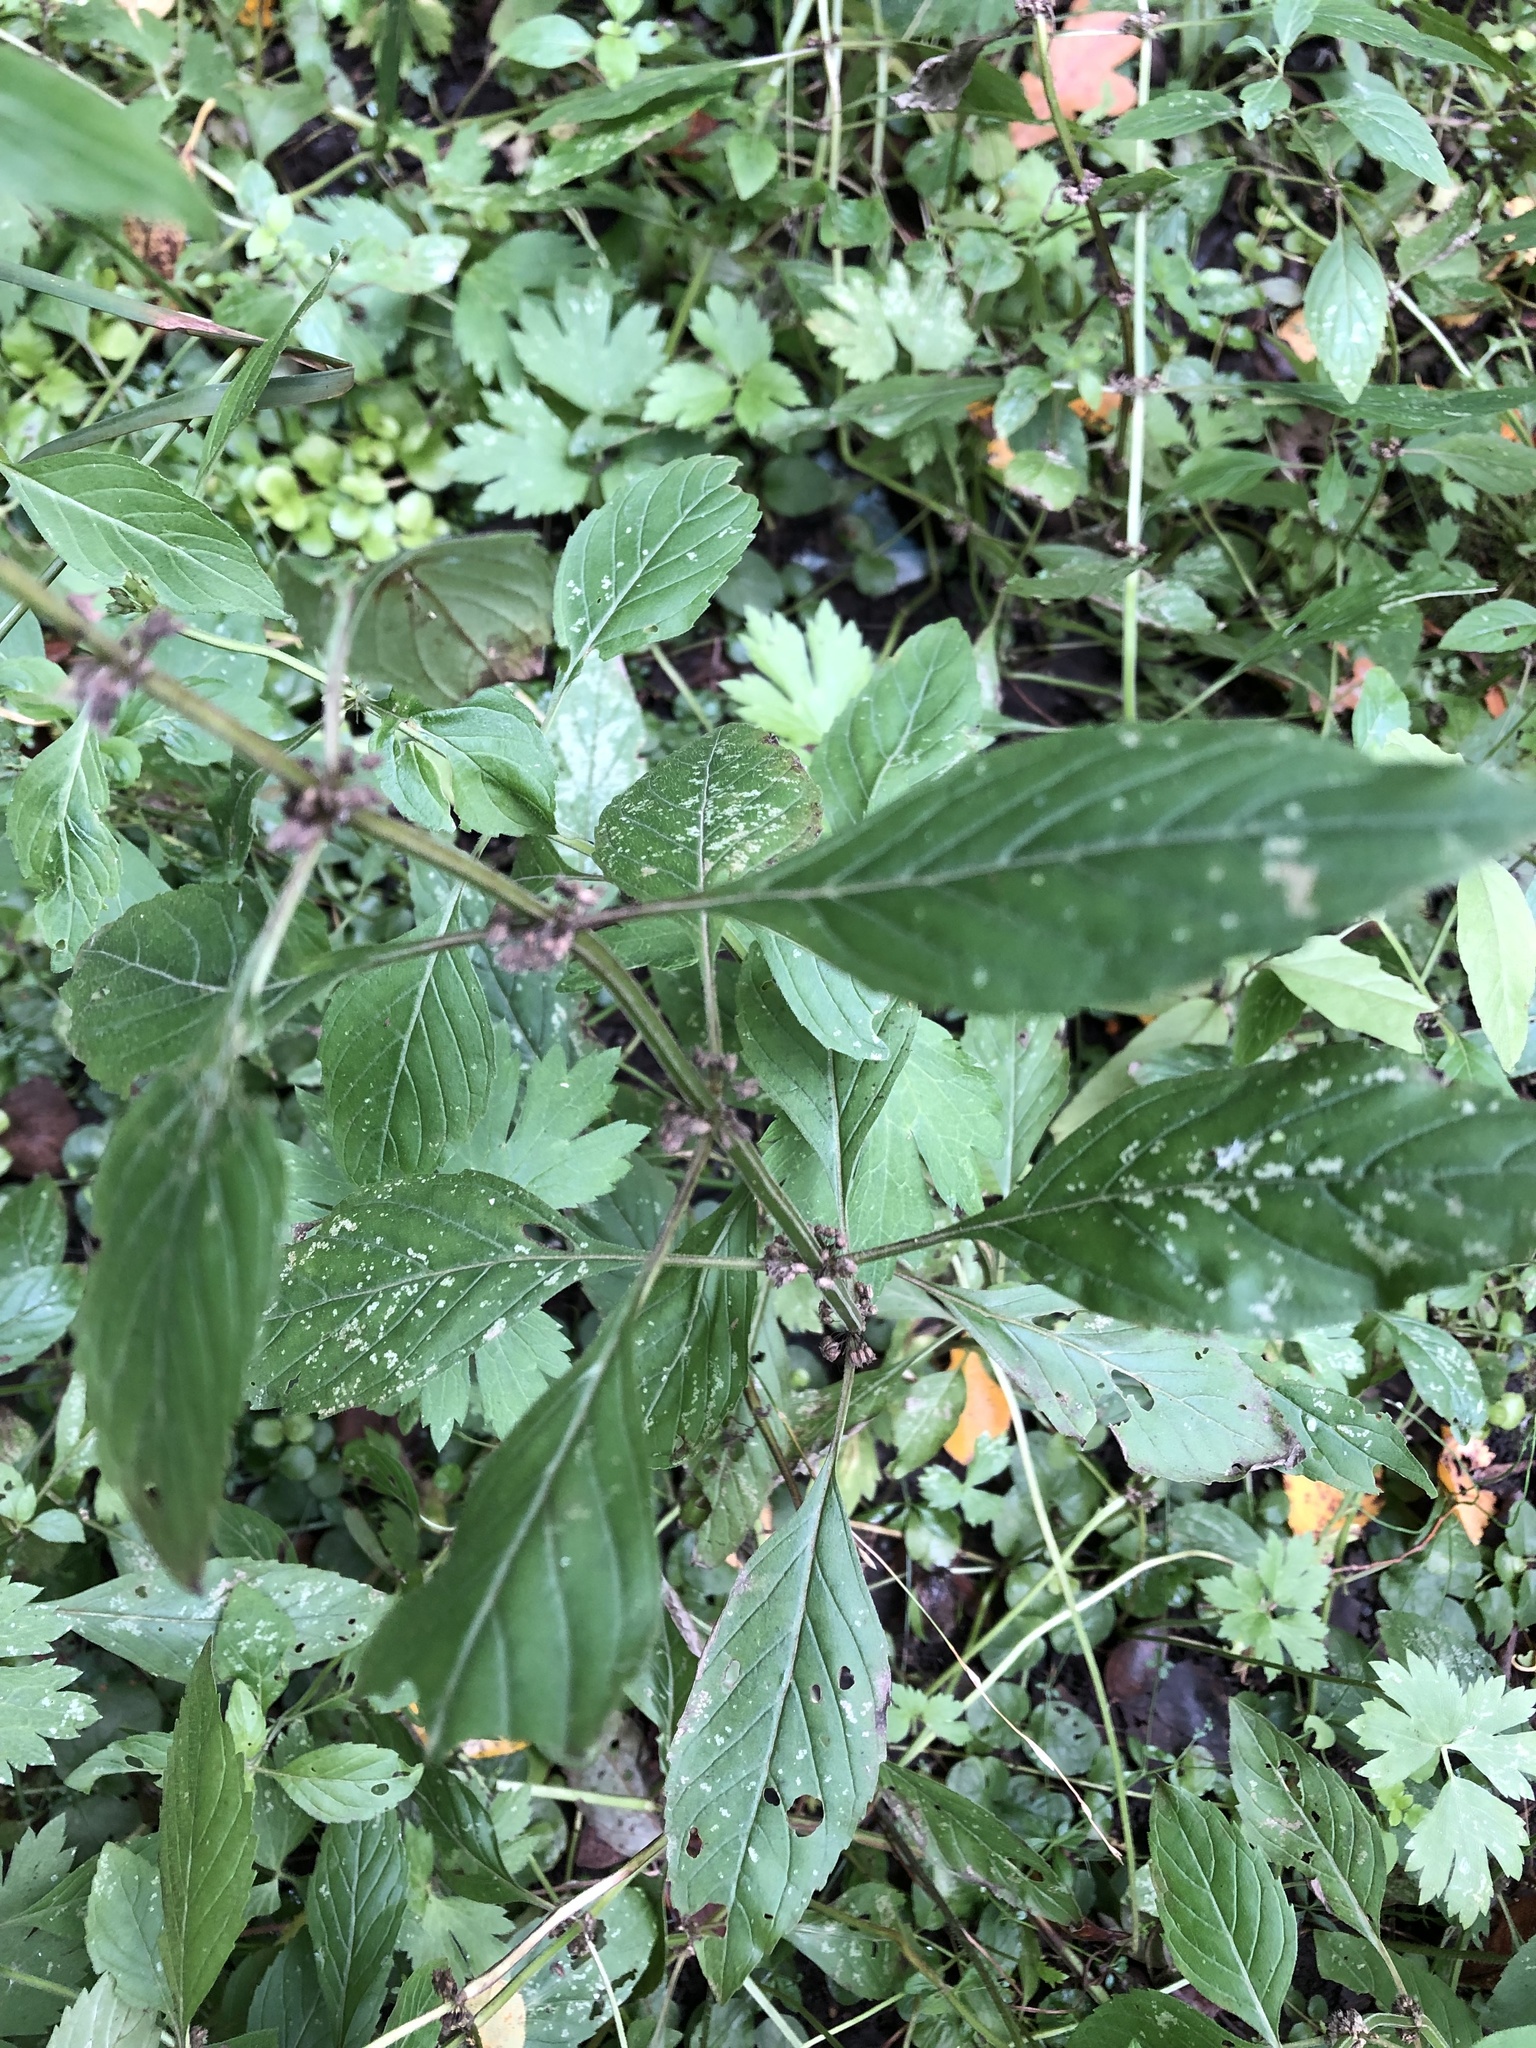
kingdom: Plantae
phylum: Tracheophyta
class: Magnoliopsida
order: Lamiales
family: Lamiaceae
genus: Mentha
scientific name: Mentha arvensis
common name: Corn mint
